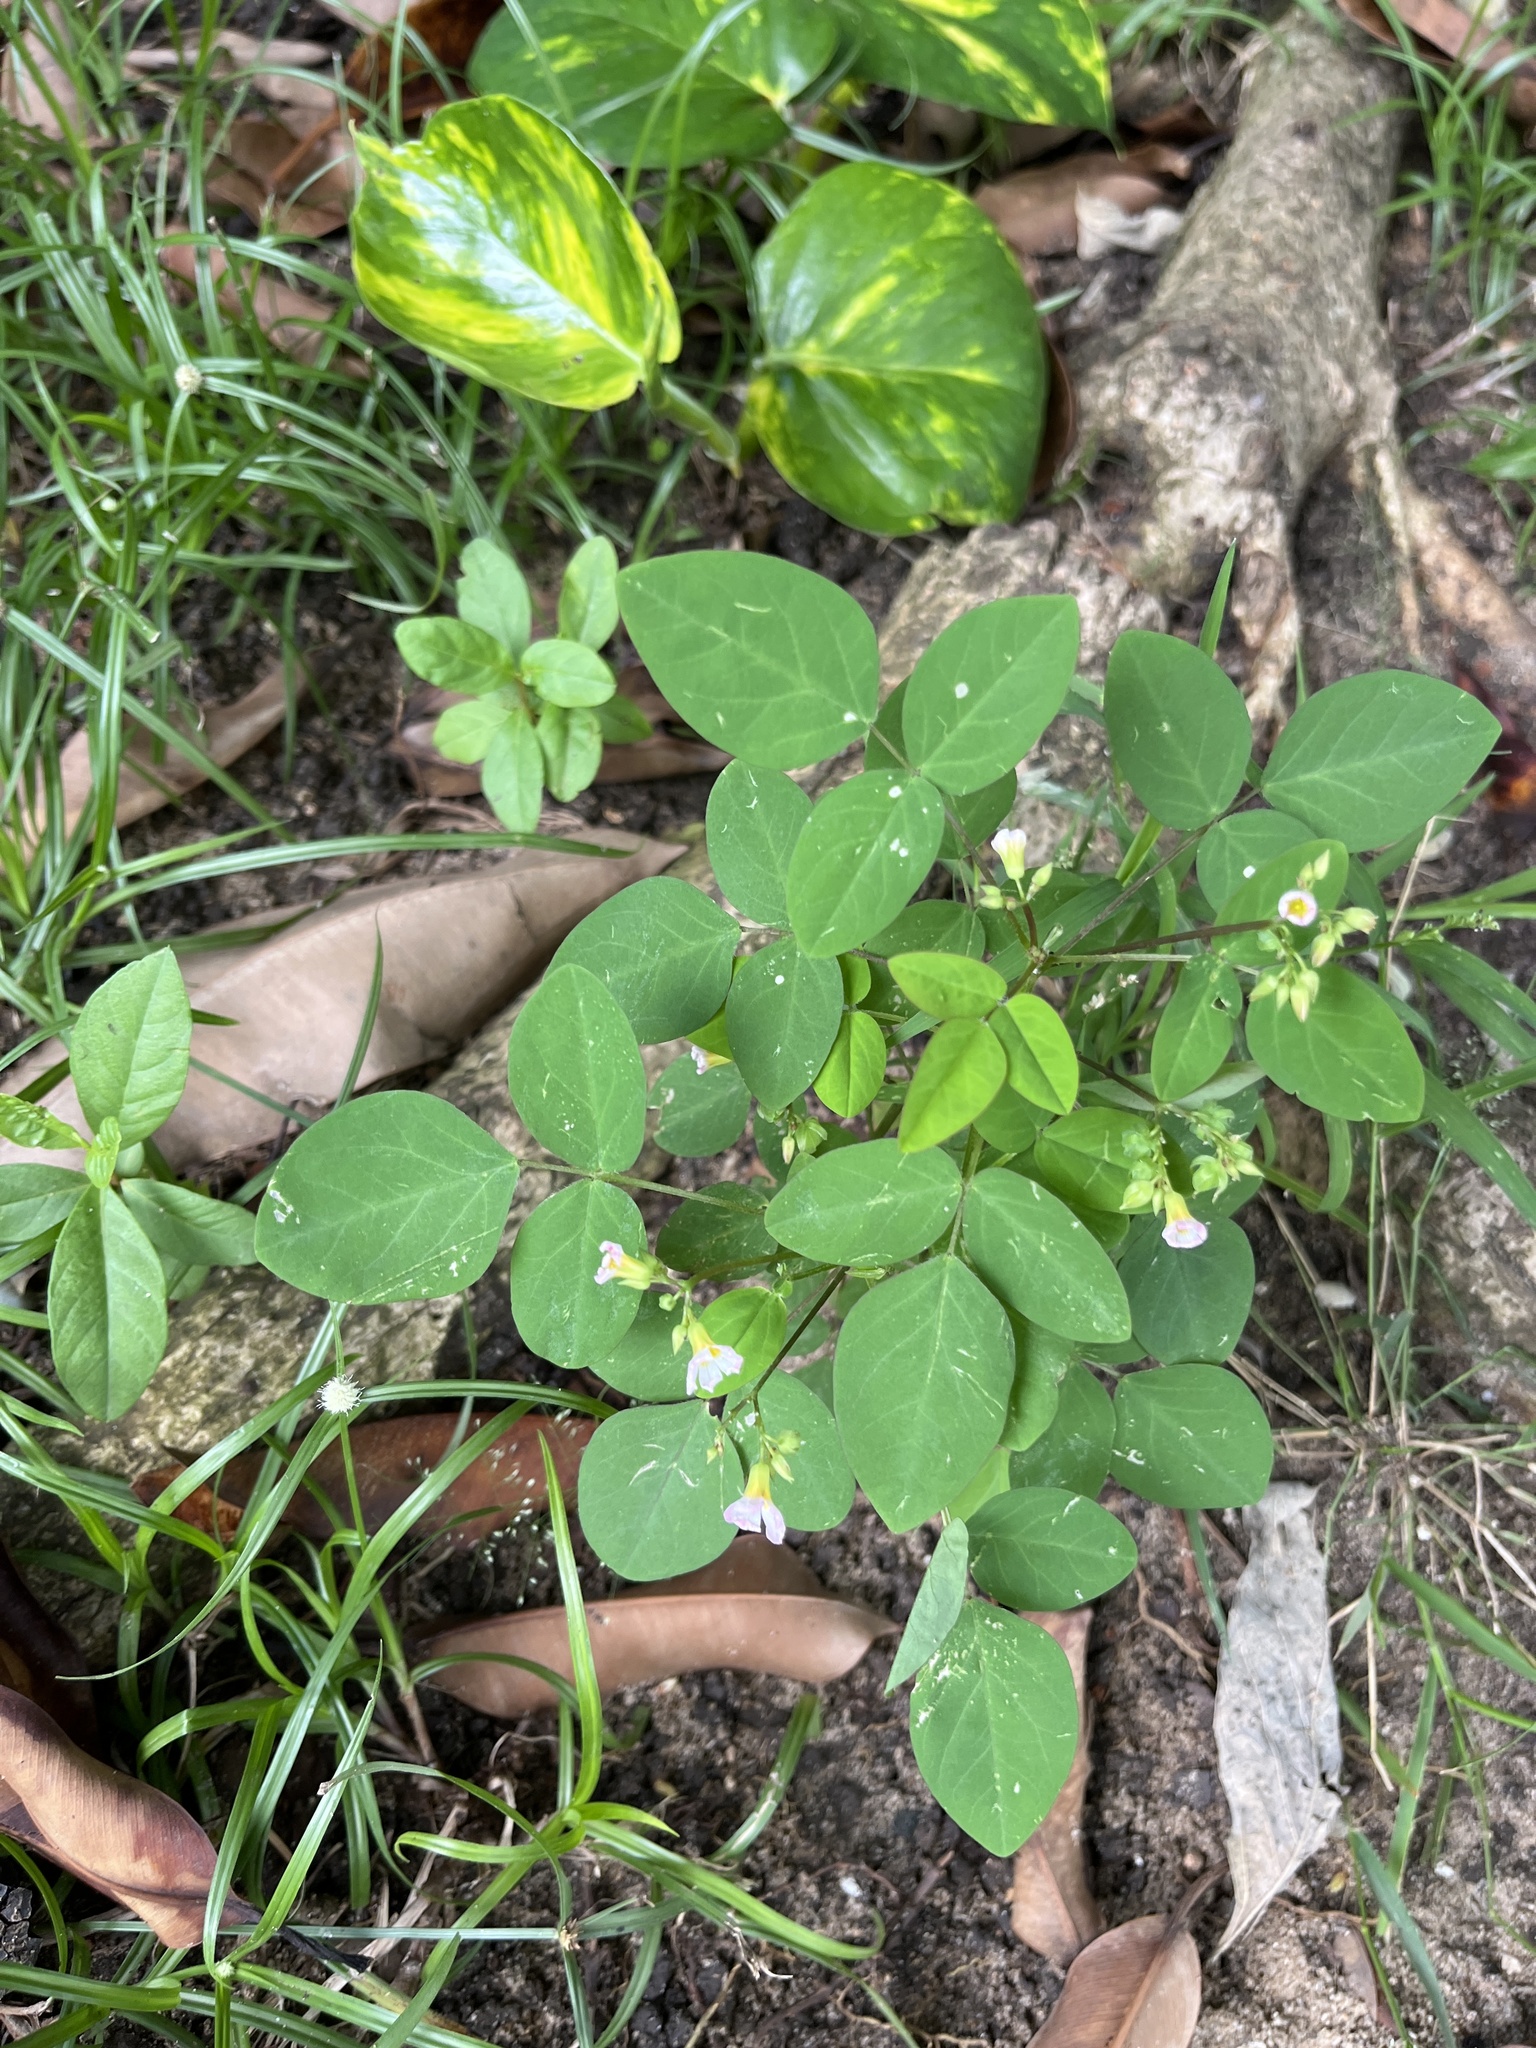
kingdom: Plantae
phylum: Tracheophyta
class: Magnoliopsida
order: Oxalidales
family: Oxalidaceae
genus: Oxalis
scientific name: Oxalis barrelieri
